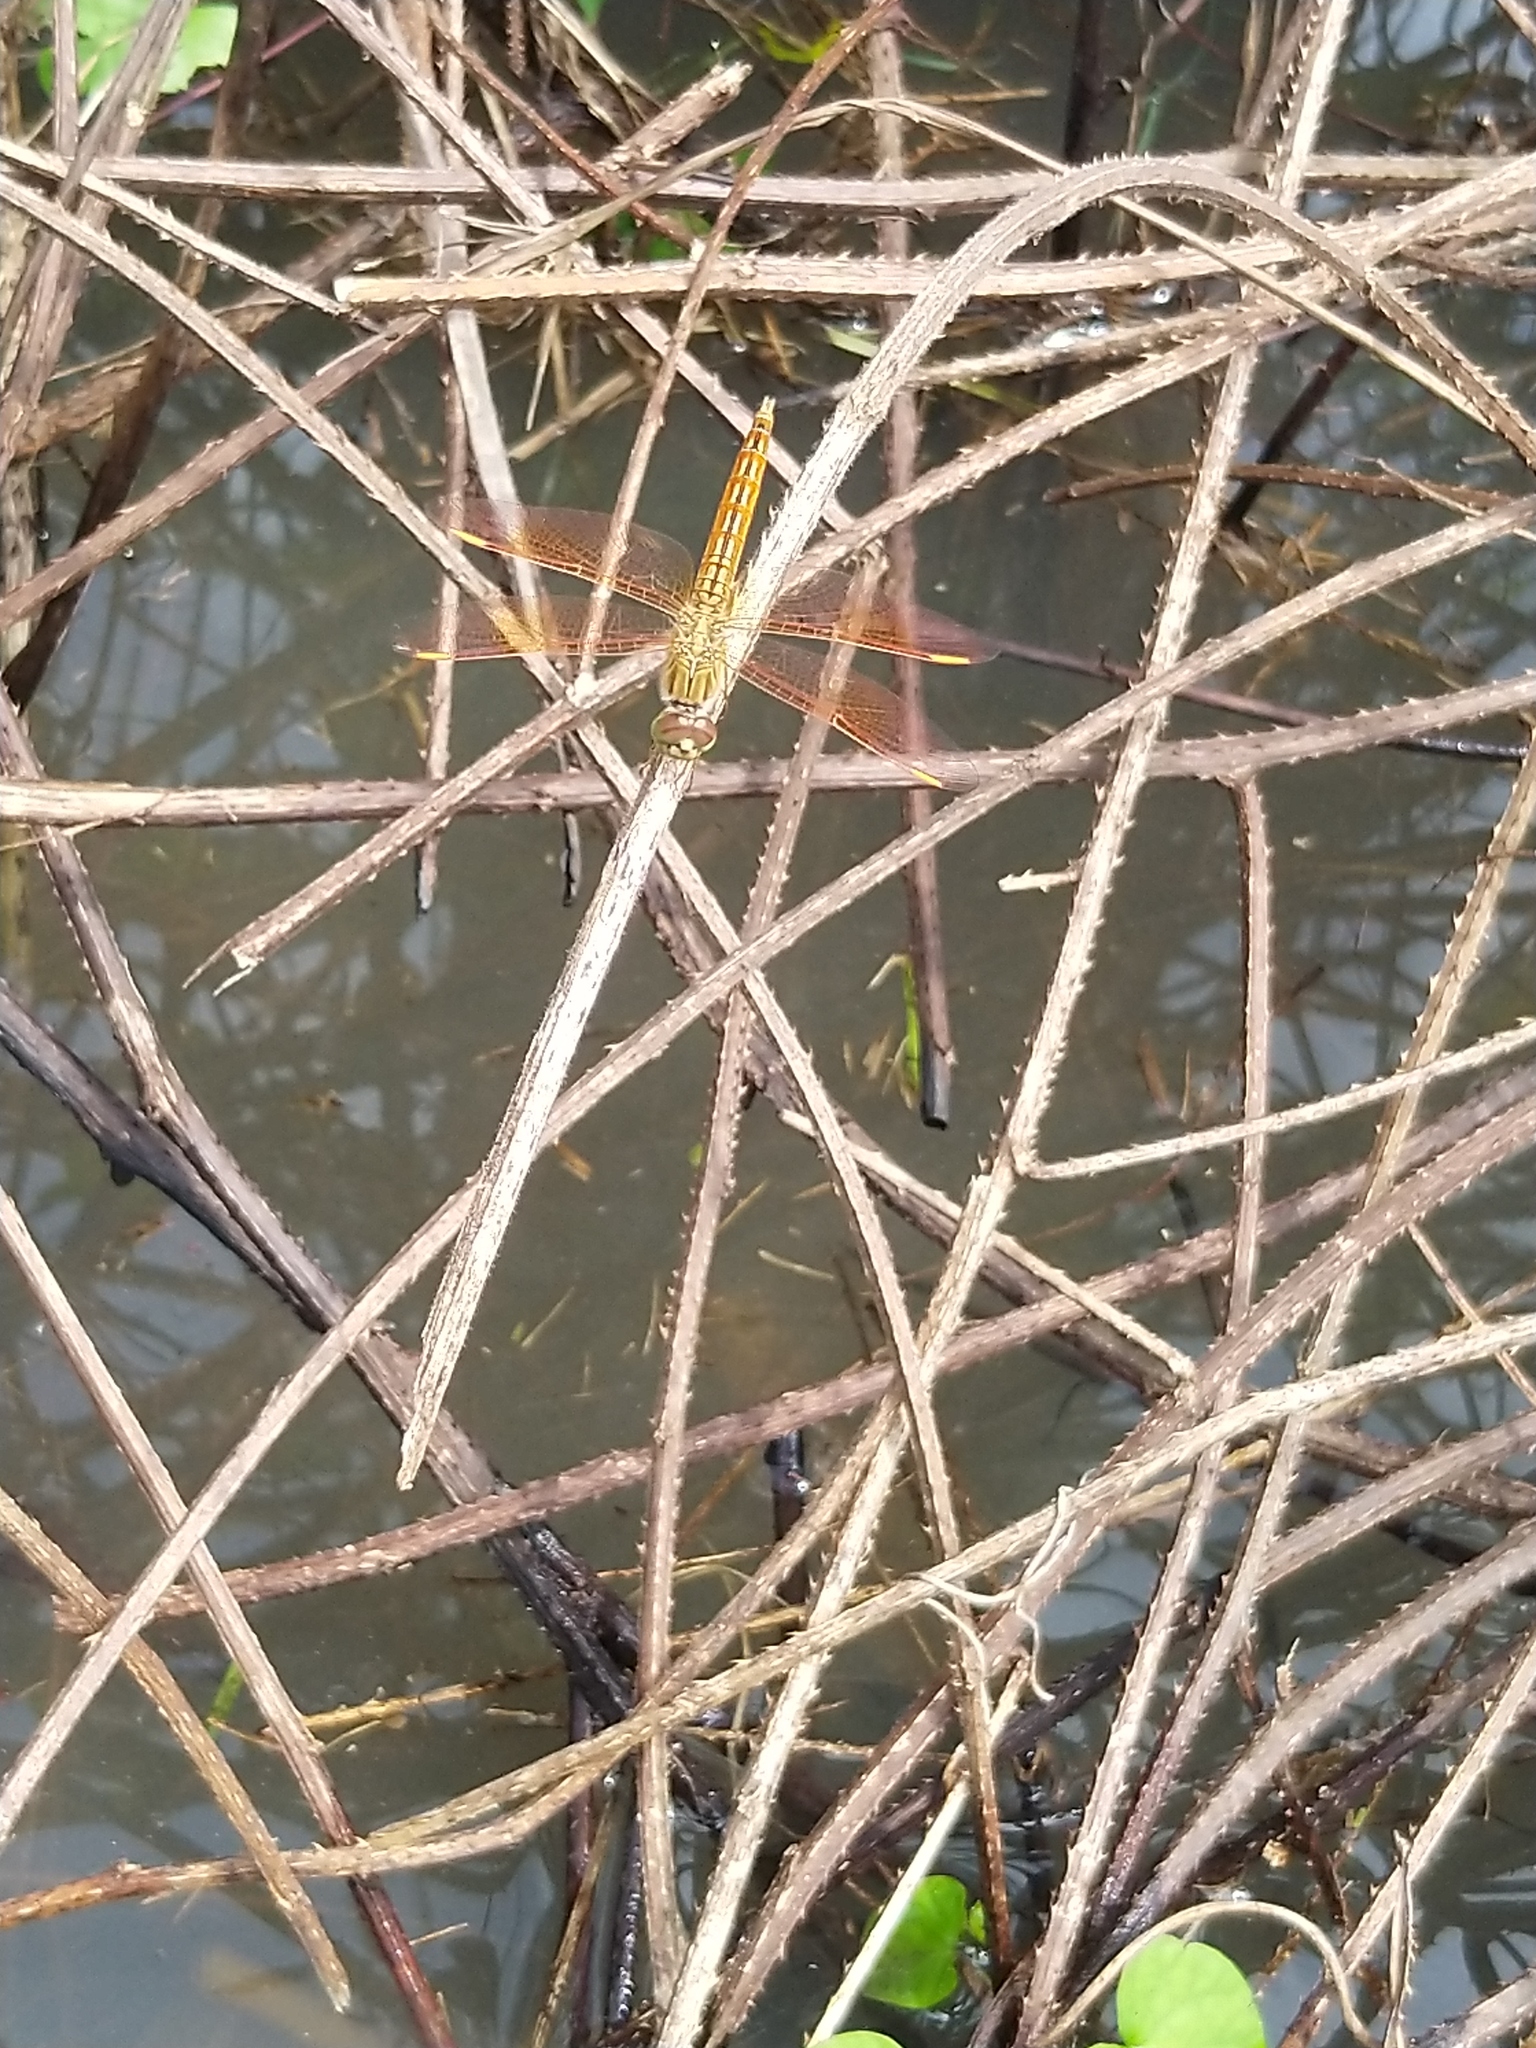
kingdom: Animalia
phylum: Arthropoda
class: Insecta
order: Odonata
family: Libellulidae
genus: Brachythemis
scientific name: Brachythemis contaminata
